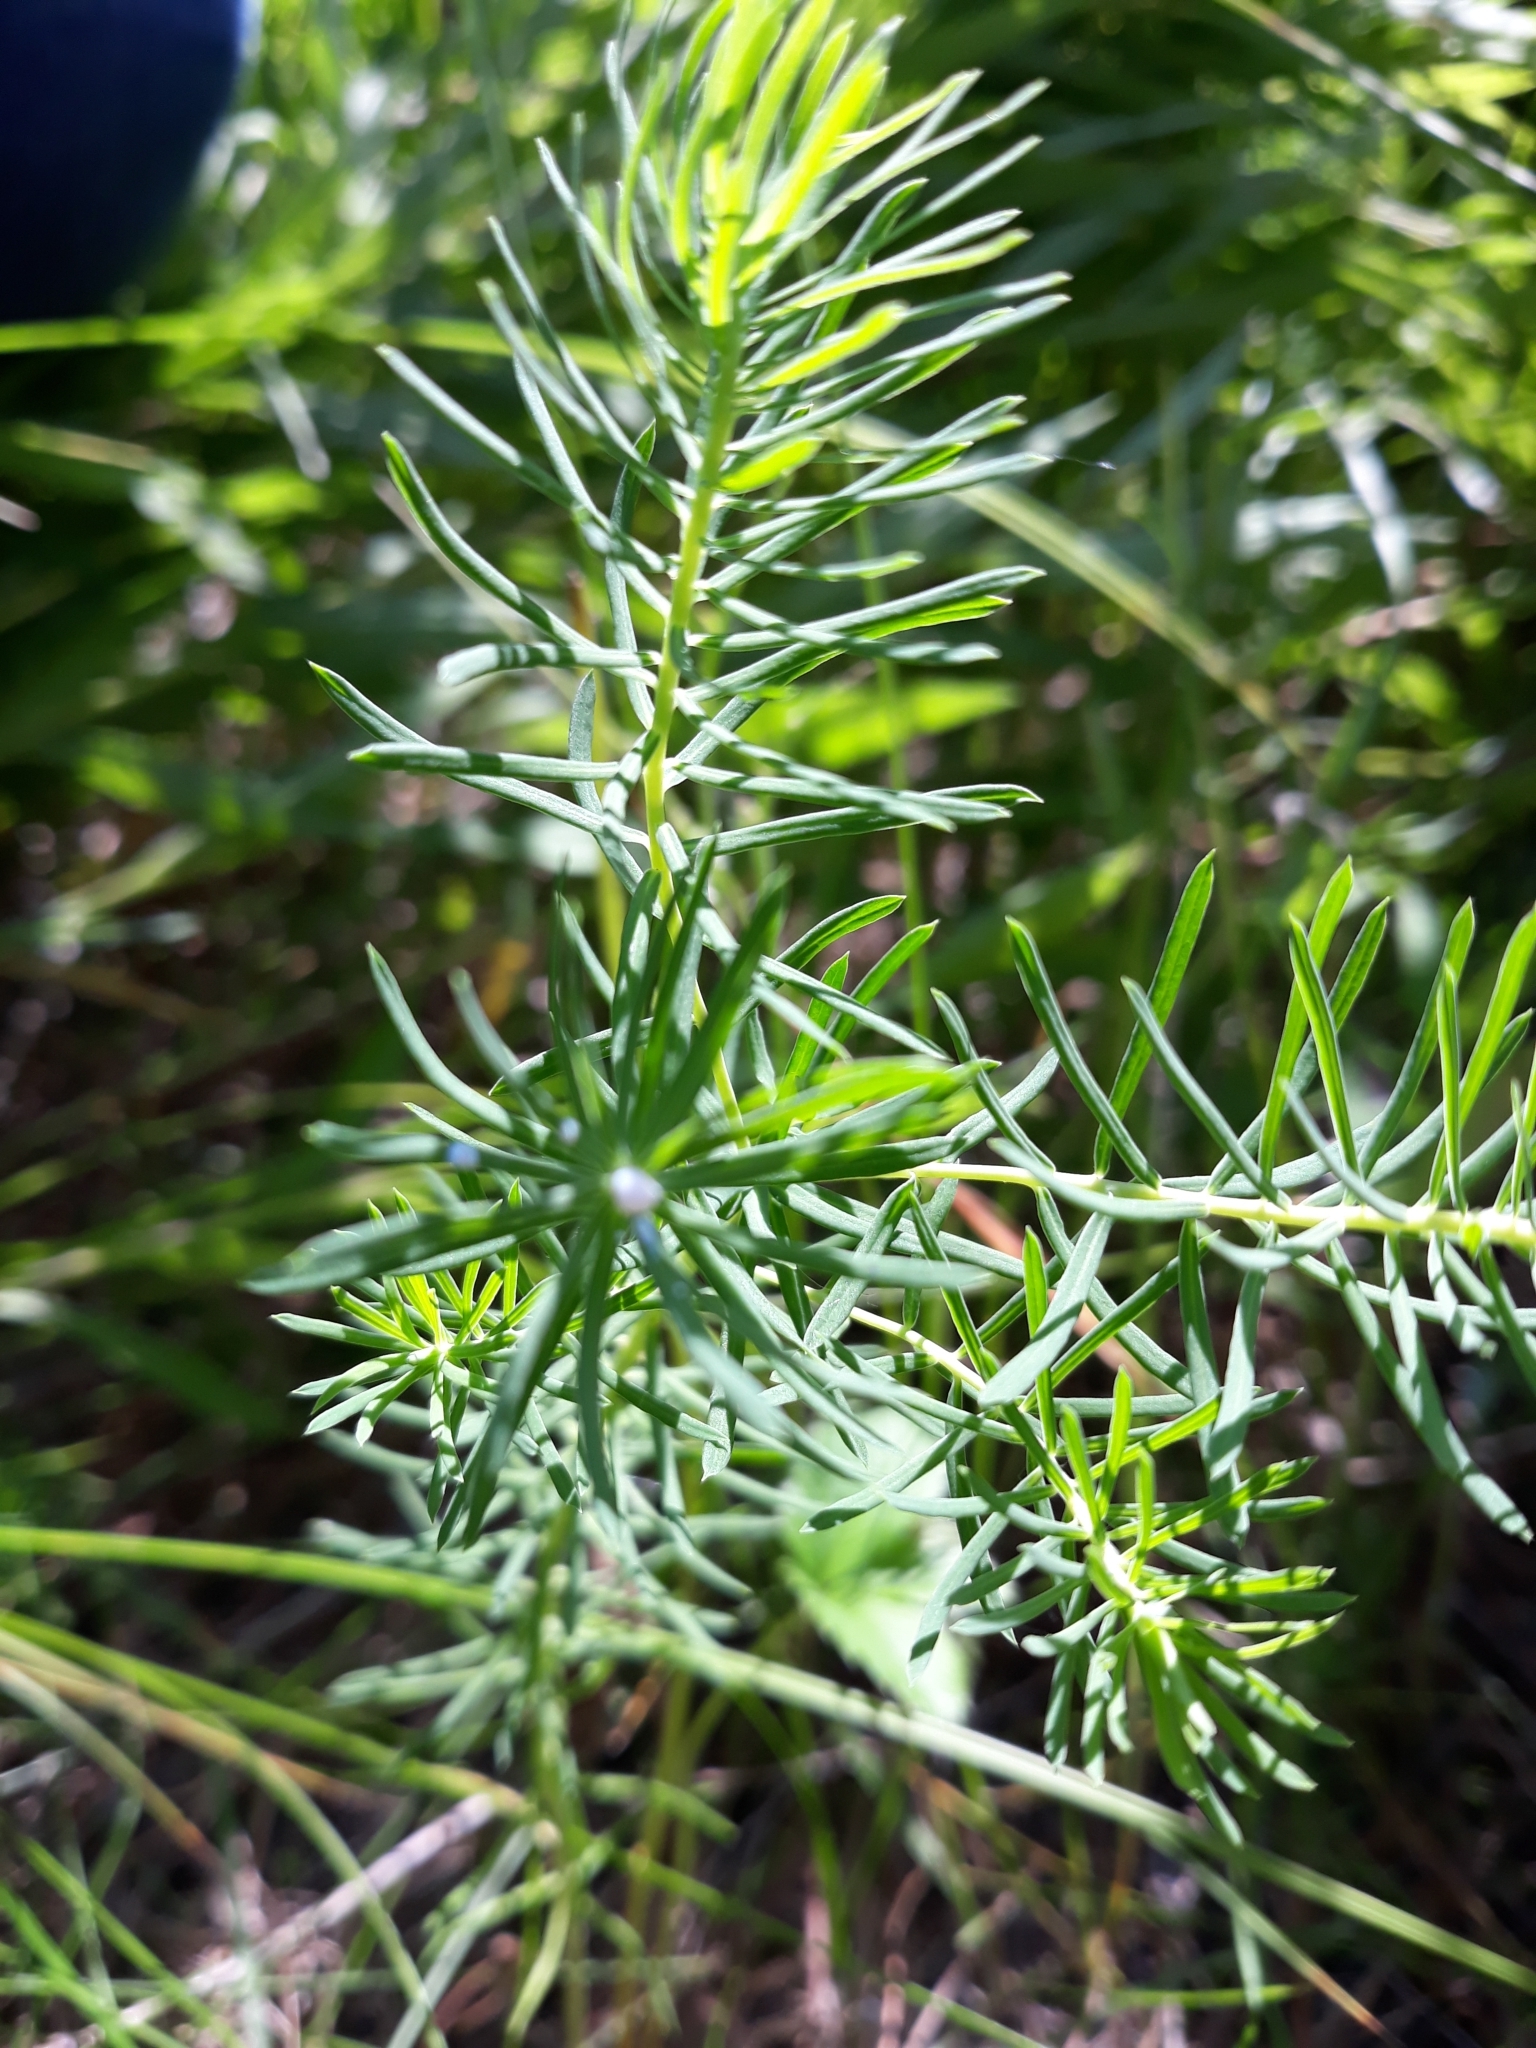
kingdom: Plantae
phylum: Tracheophyta
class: Magnoliopsida
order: Malpighiales
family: Euphorbiaceae
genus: Euphorbia
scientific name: Euphorbia cyparissias
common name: Cypress spurge
